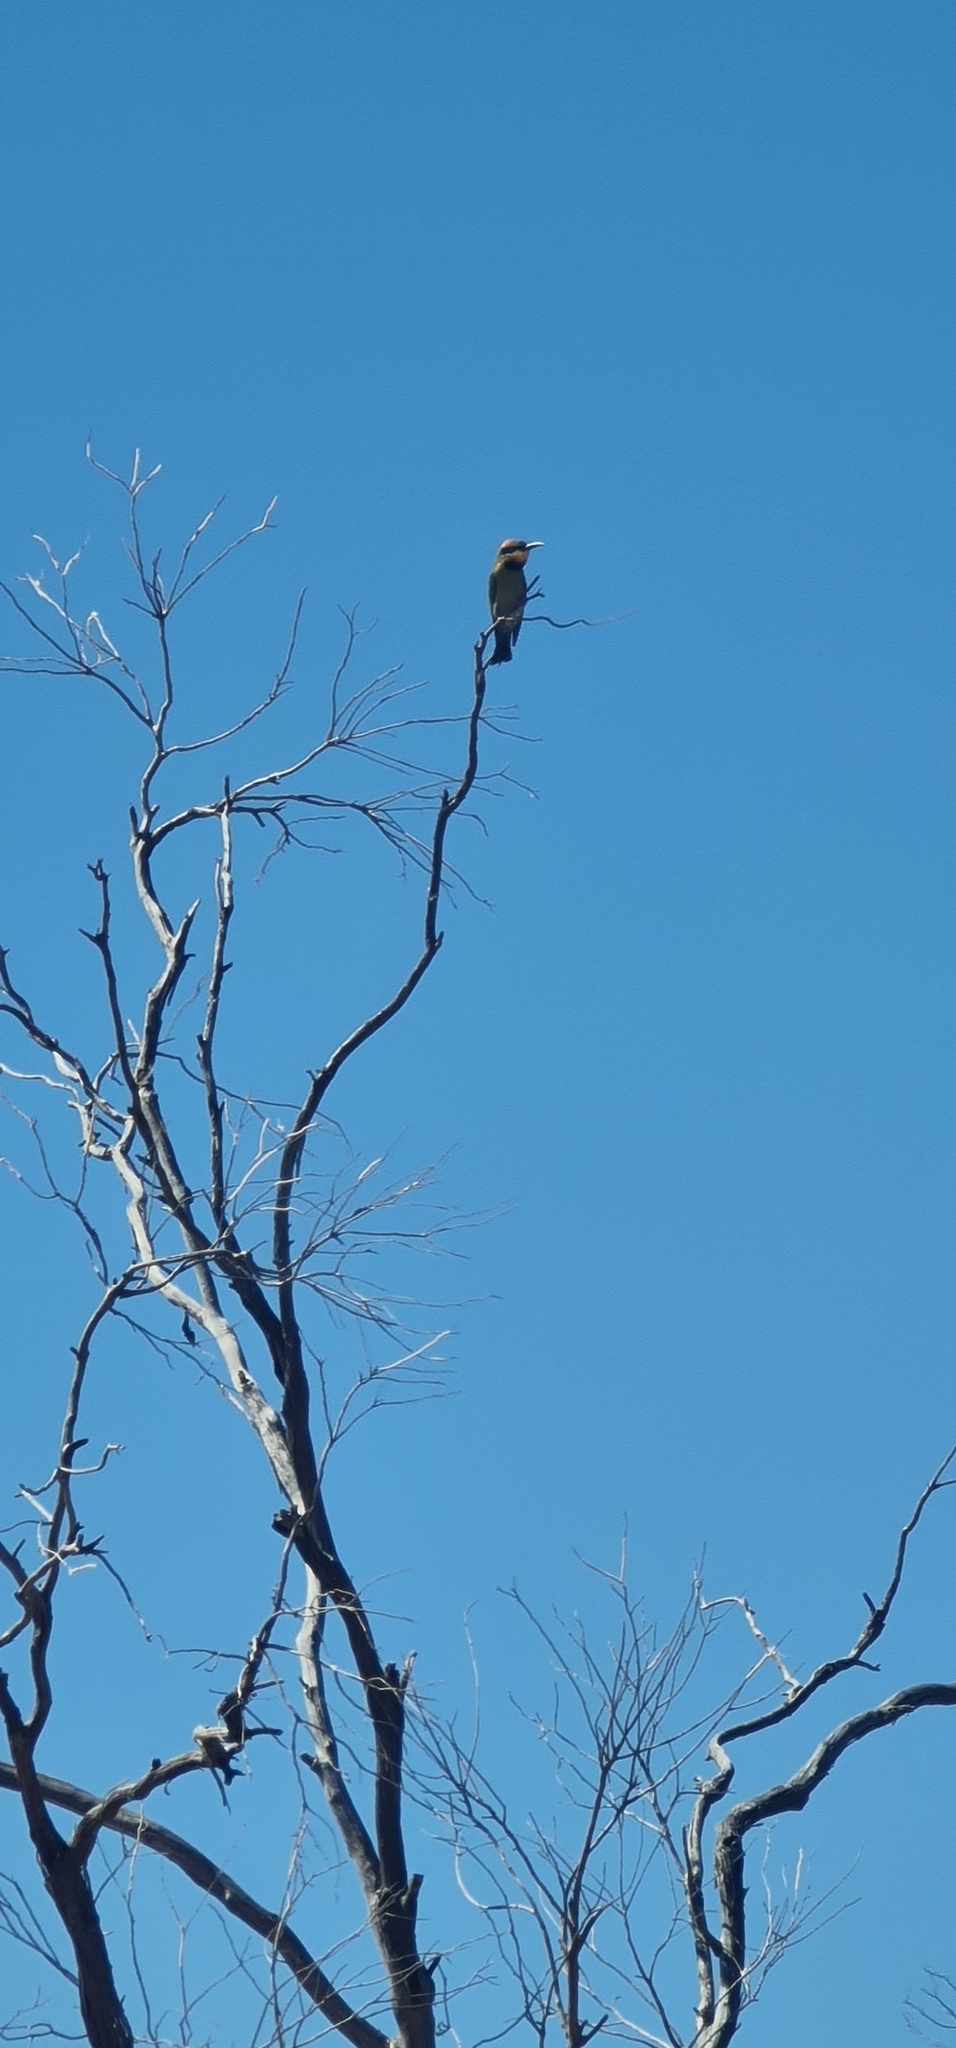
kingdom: Animalia
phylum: Chordata
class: Aves
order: Coraciiformes
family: Meropidae
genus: Merops
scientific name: Merops ornatus
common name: Rainbow bee-eater
